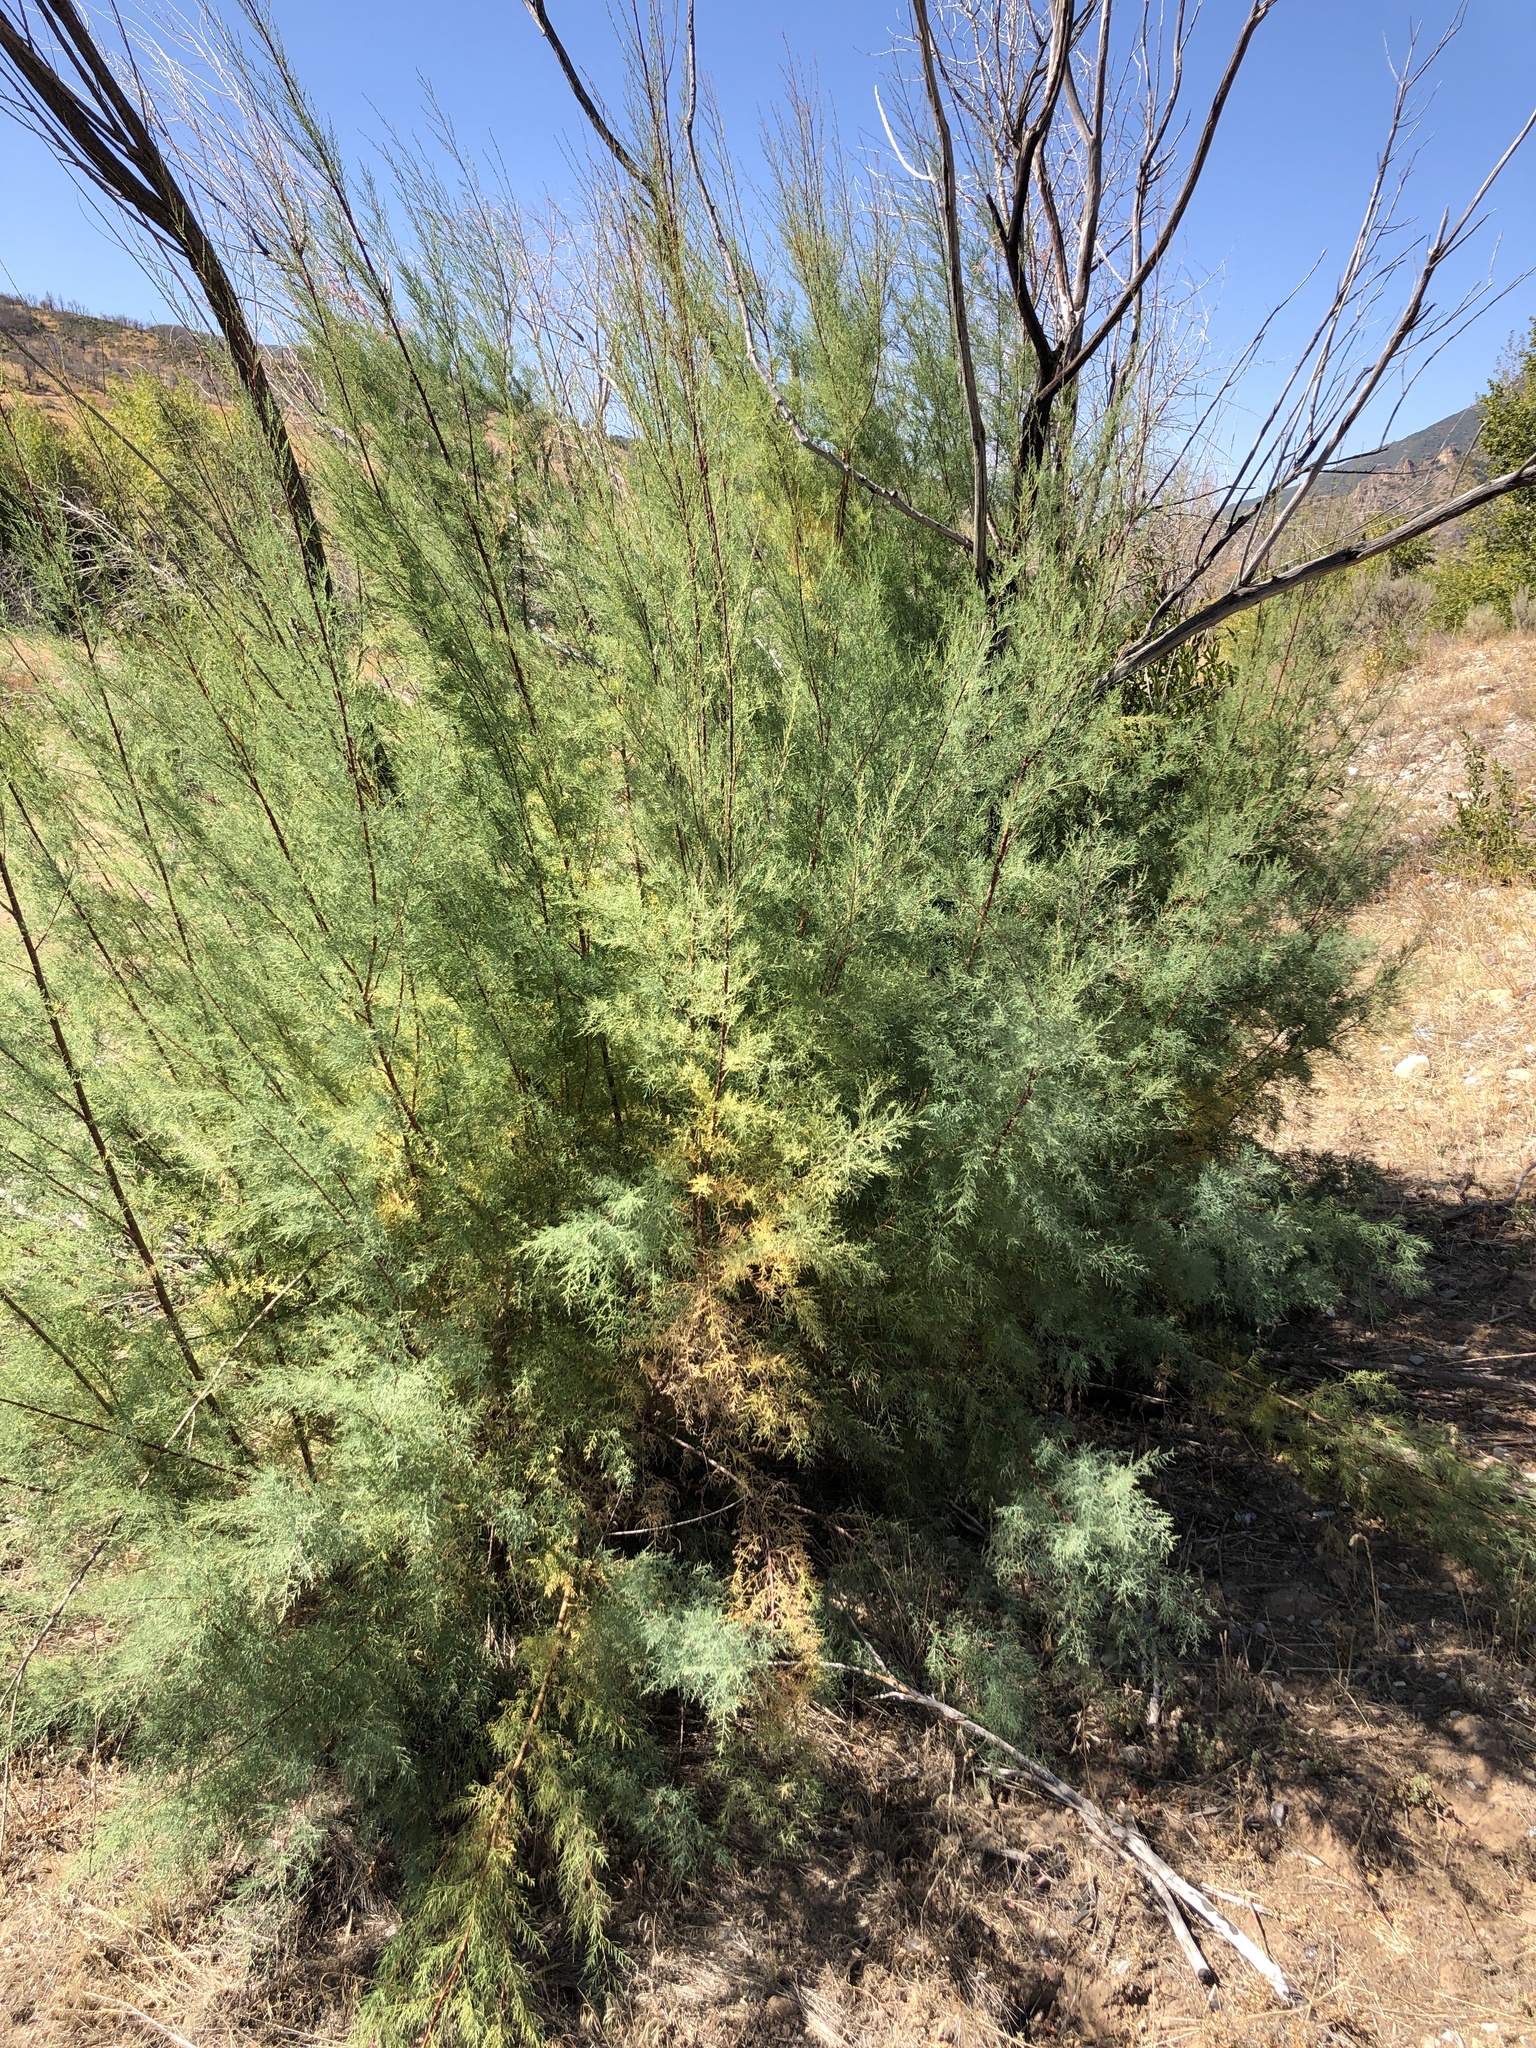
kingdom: Plantae
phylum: Tracheophyta
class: Magnoliopsida
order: Caryophyllales
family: Tamaricaceae
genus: Tamarix
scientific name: Tamarix chinensis
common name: Chinese tamarisk
